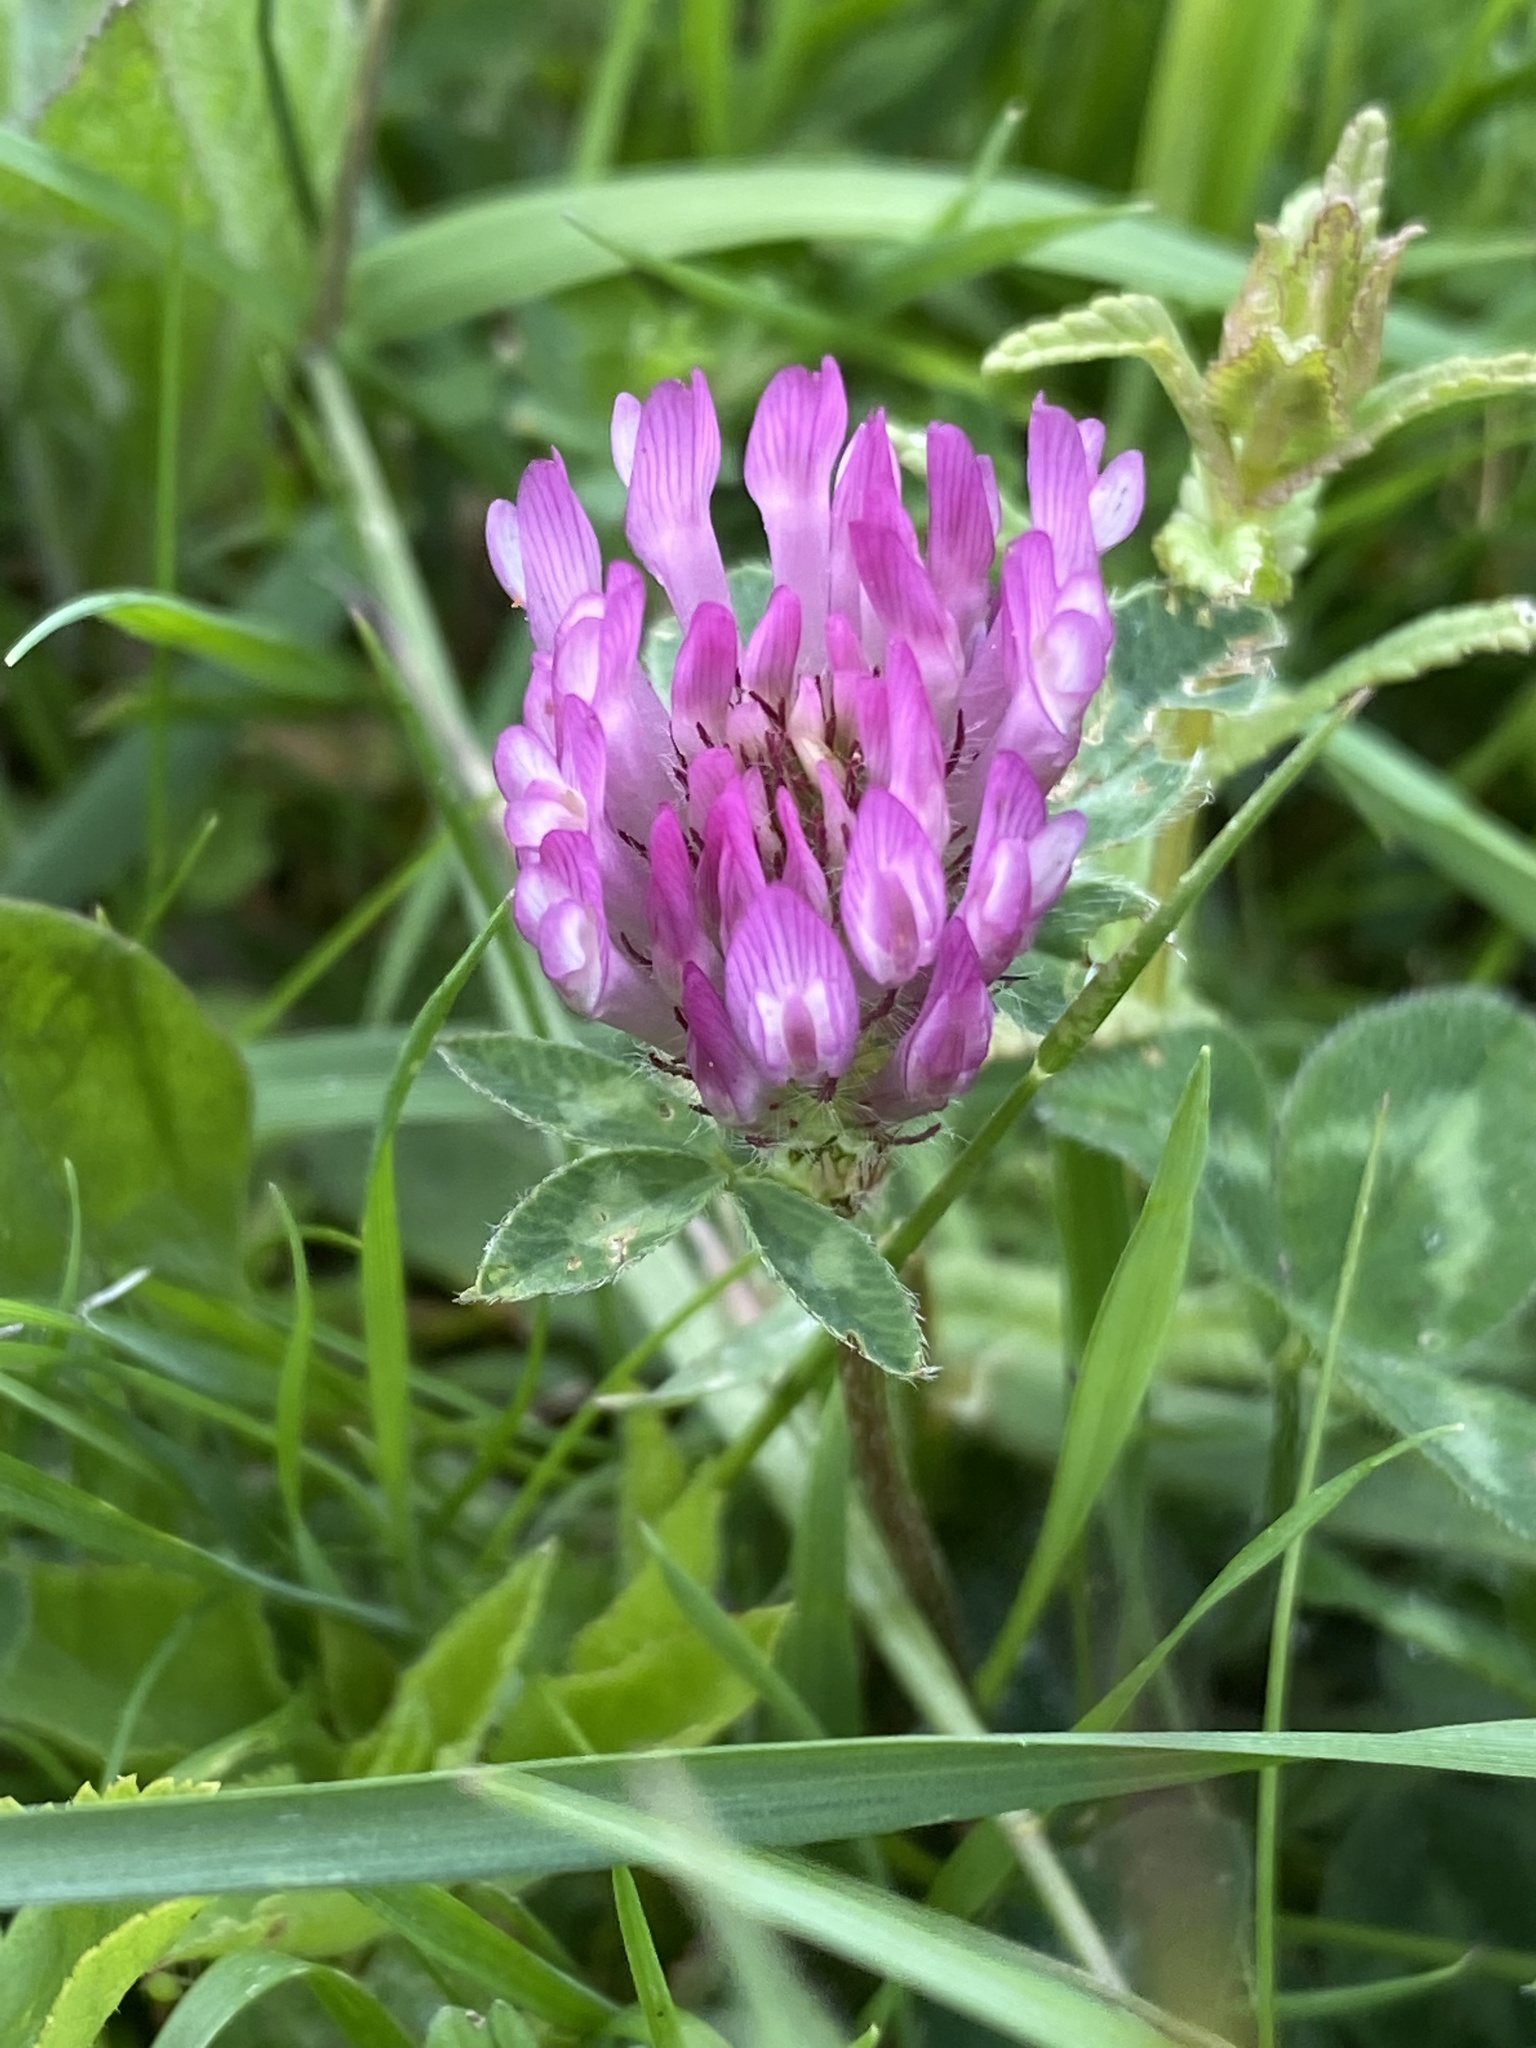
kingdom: Plantae
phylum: Tracheophyta
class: Magnoliopsida
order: Fabales
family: Fabaceae
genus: Trifolium
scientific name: Trifolium pratense
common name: Red clover
